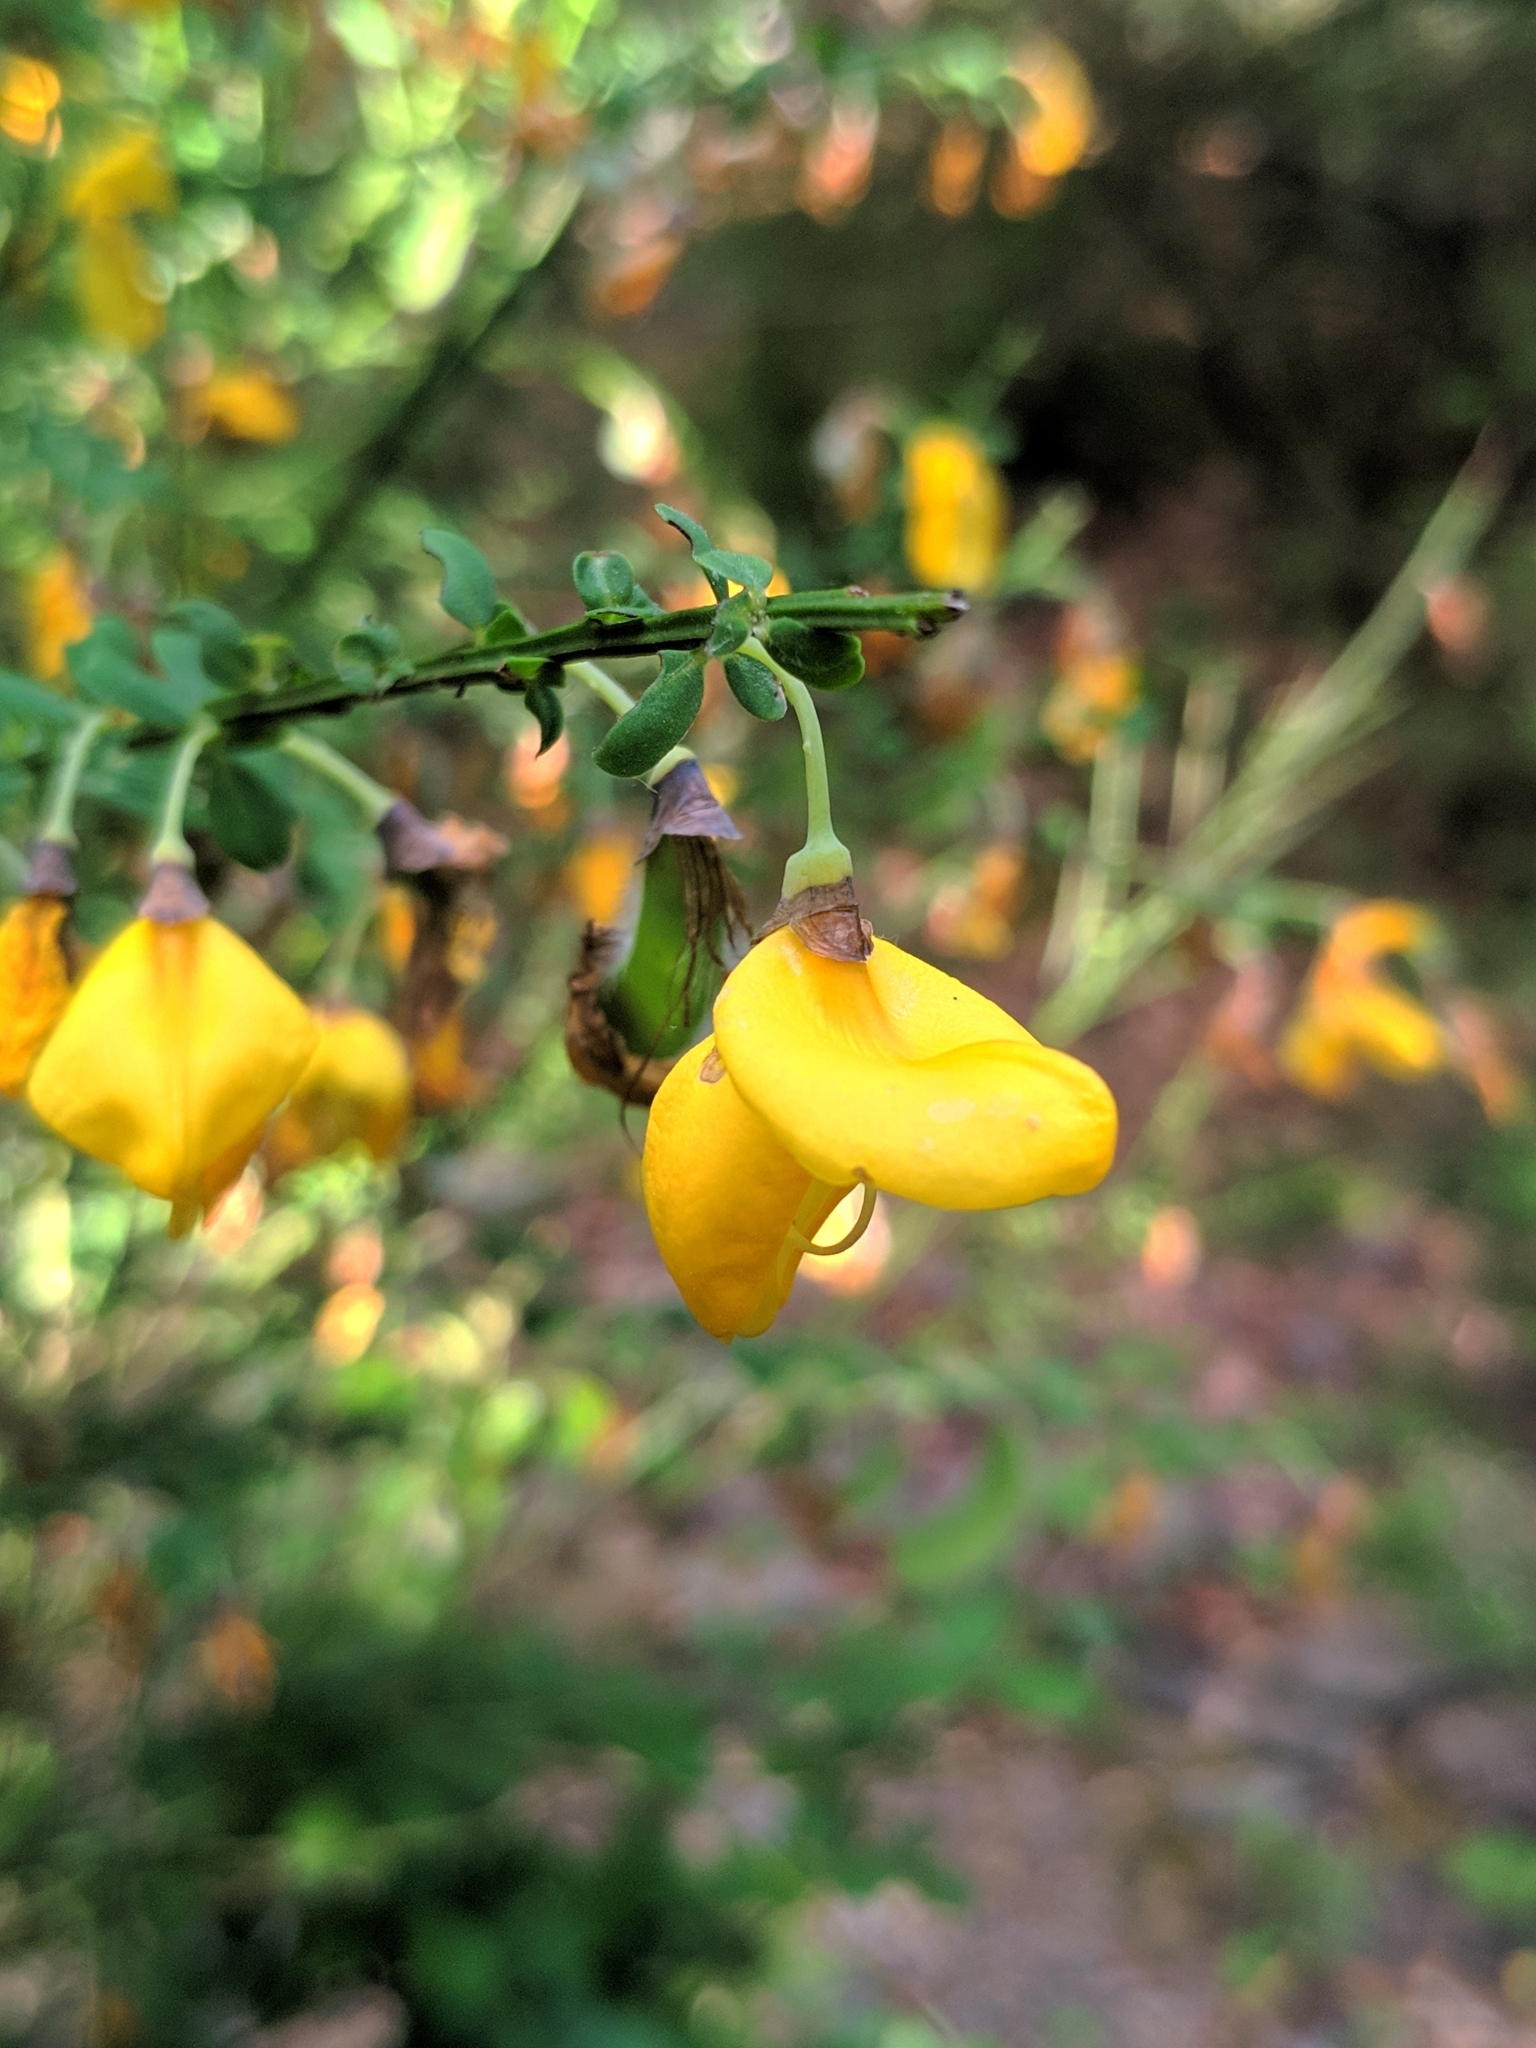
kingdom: Plantae
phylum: Tracheophyta
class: Magnoliopsida
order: Fabales
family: Fabaceae
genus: Cytisus
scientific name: Cytisus scoparius
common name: Scotch broom
